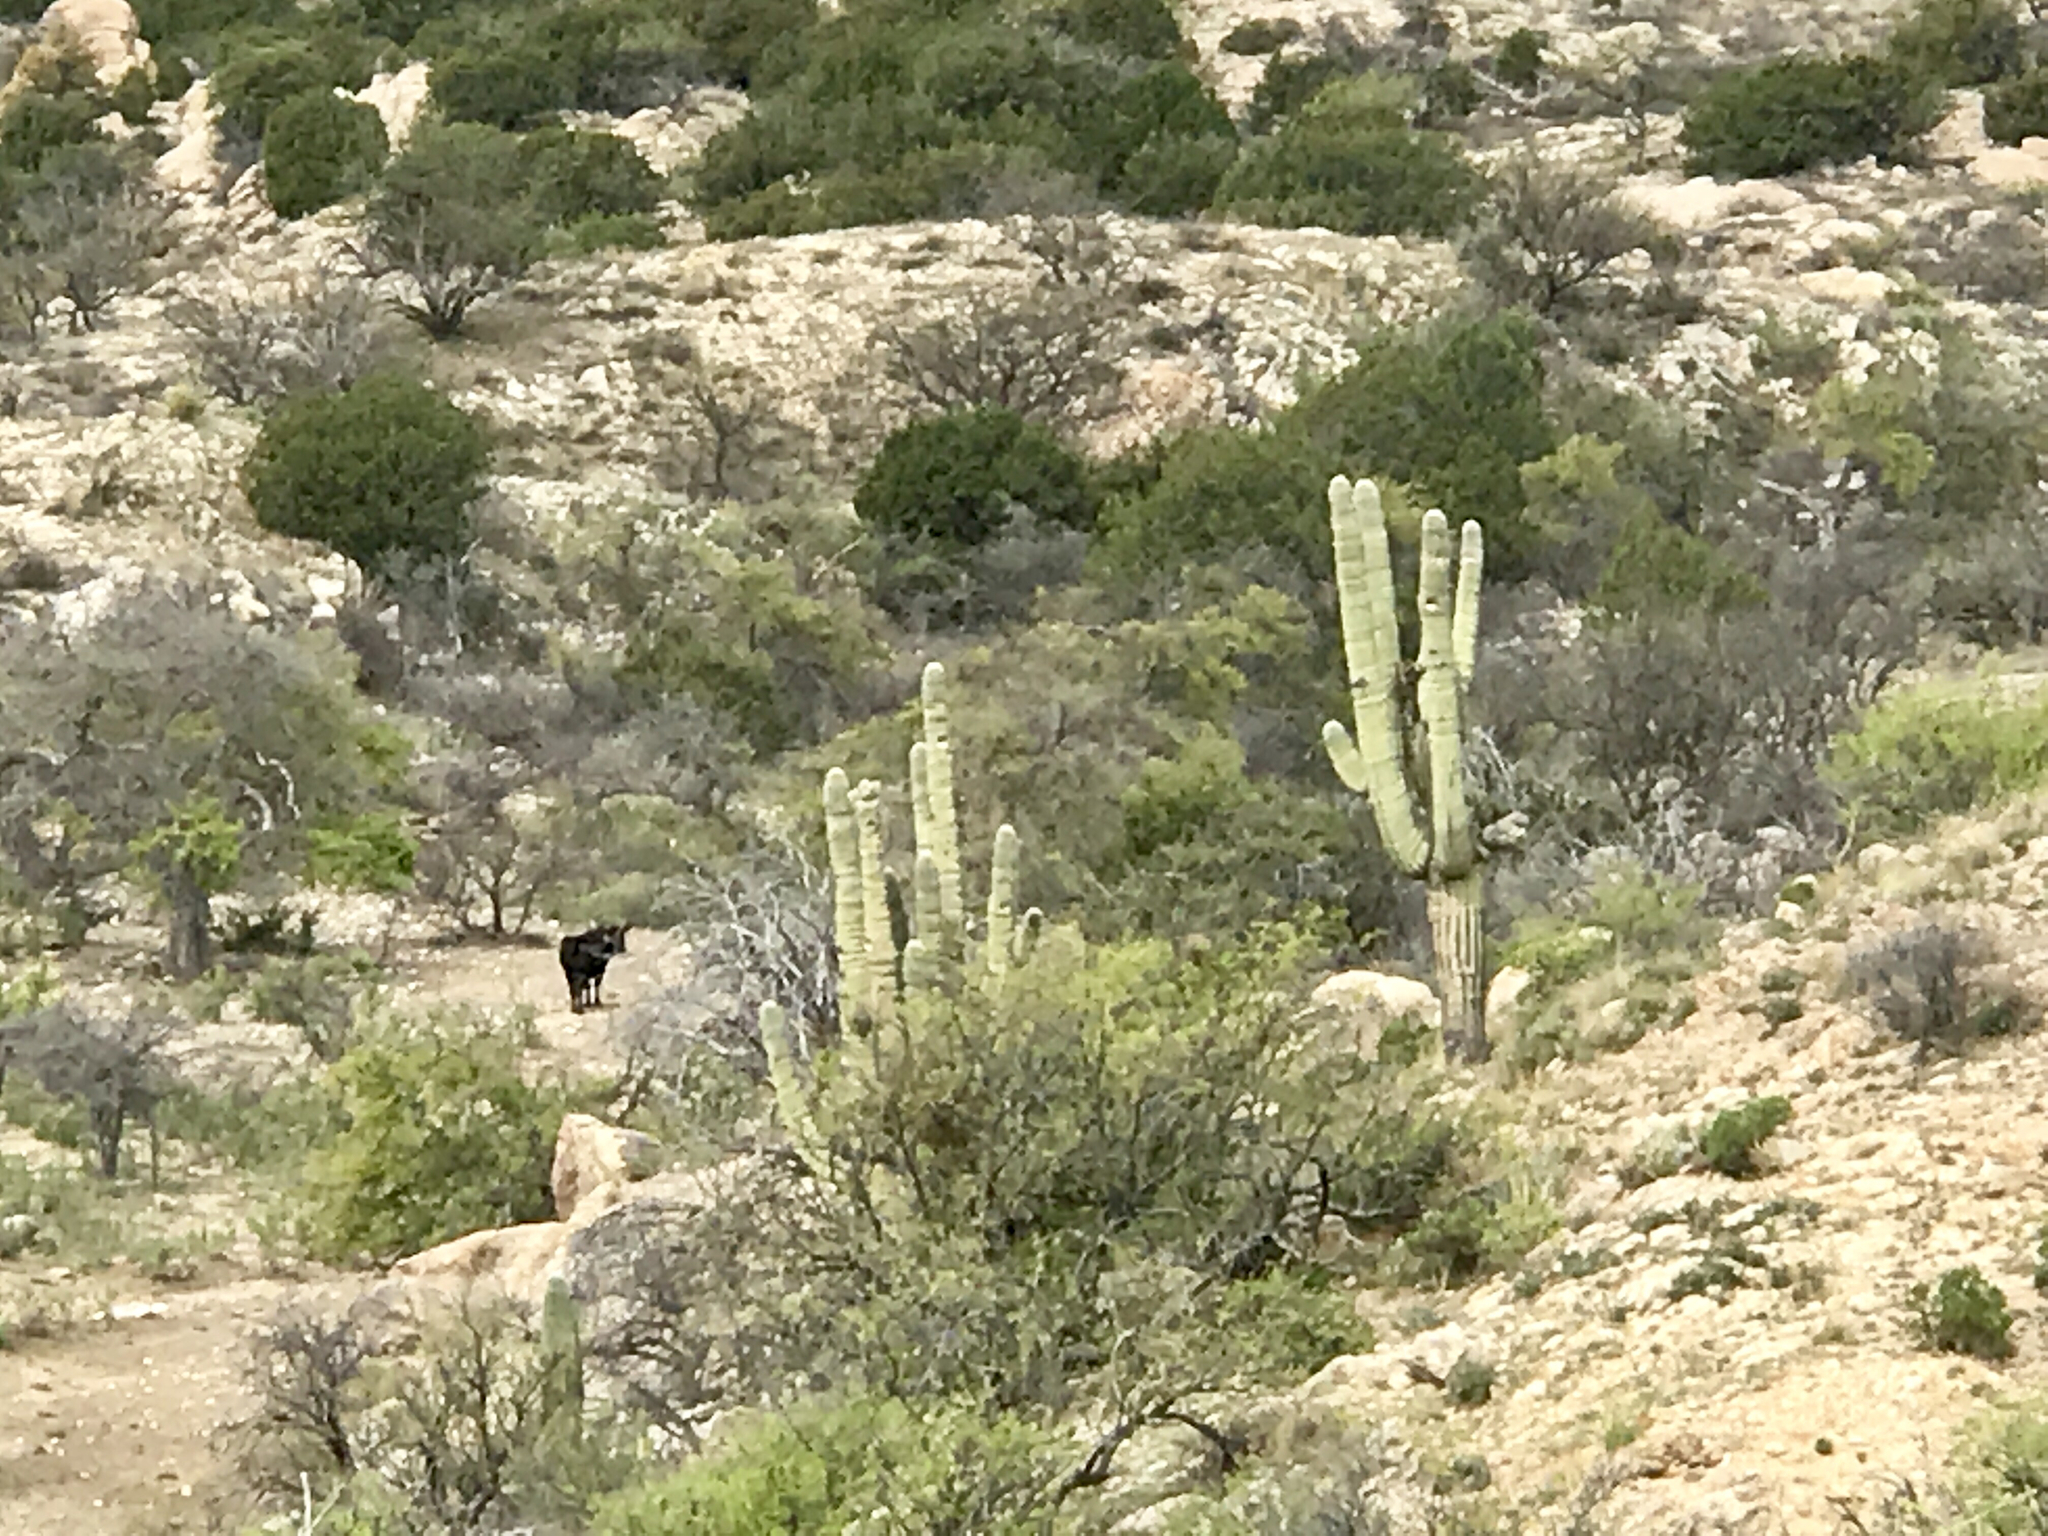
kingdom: Plantae
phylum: Tracheophyta
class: Magnoliopsida
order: Caryophyllales
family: Cactaceae
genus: Carnegiea
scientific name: Carnegiea gigantea
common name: Saguaro
